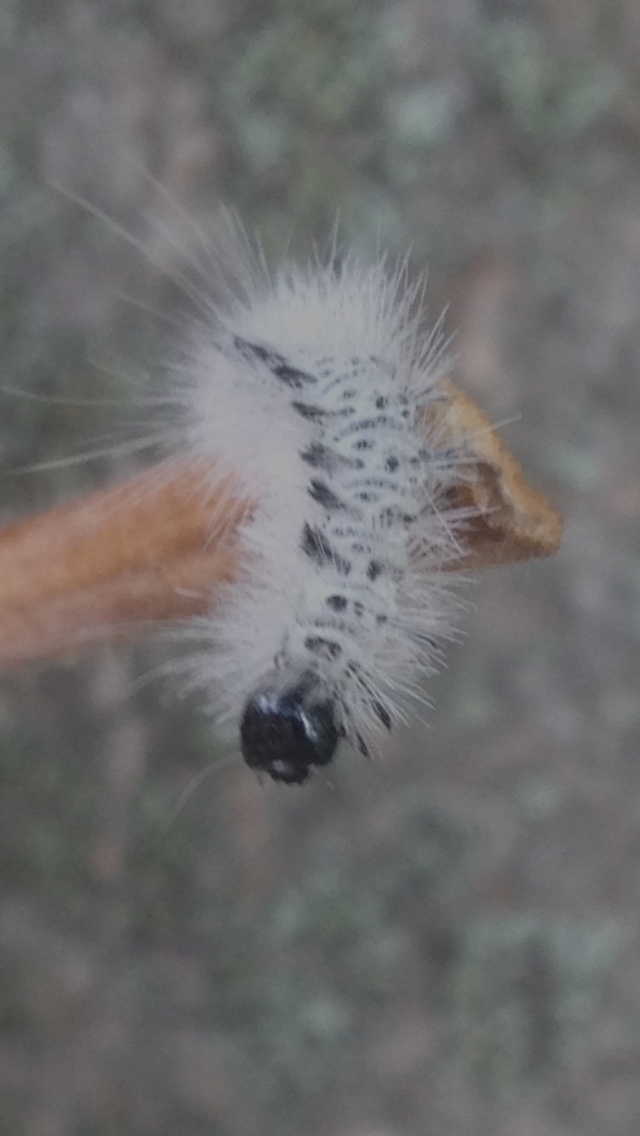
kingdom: Animalia
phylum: Arthropoda
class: Insecta
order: Lepidoptera
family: Erebidae
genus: Lophocampa
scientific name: Lophocampa caryae
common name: Hickory tussock moth
